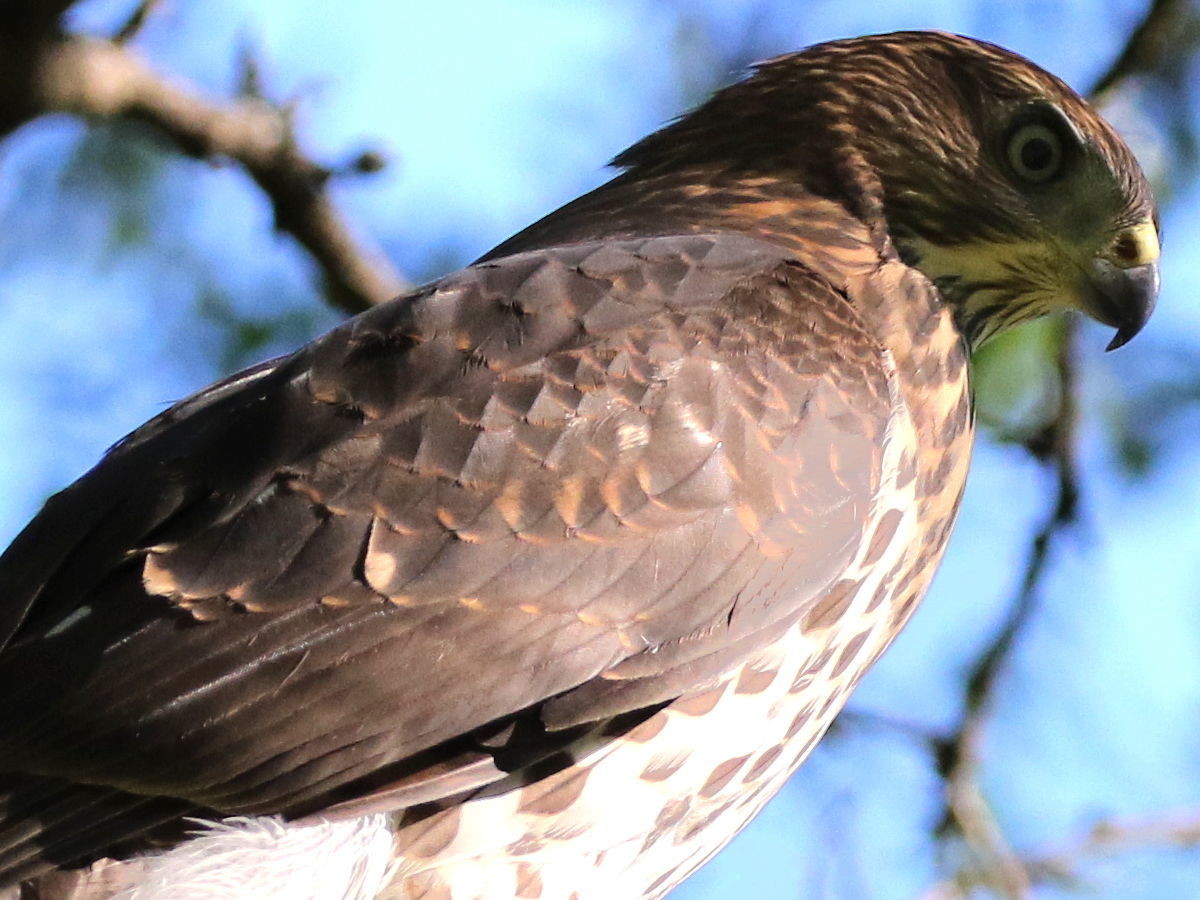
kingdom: Animalia
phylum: Chordata
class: Aves
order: Accipitriformes
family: Accipitridae
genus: Accipiter
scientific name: Accipiter cooperii
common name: Cooper's hawk
